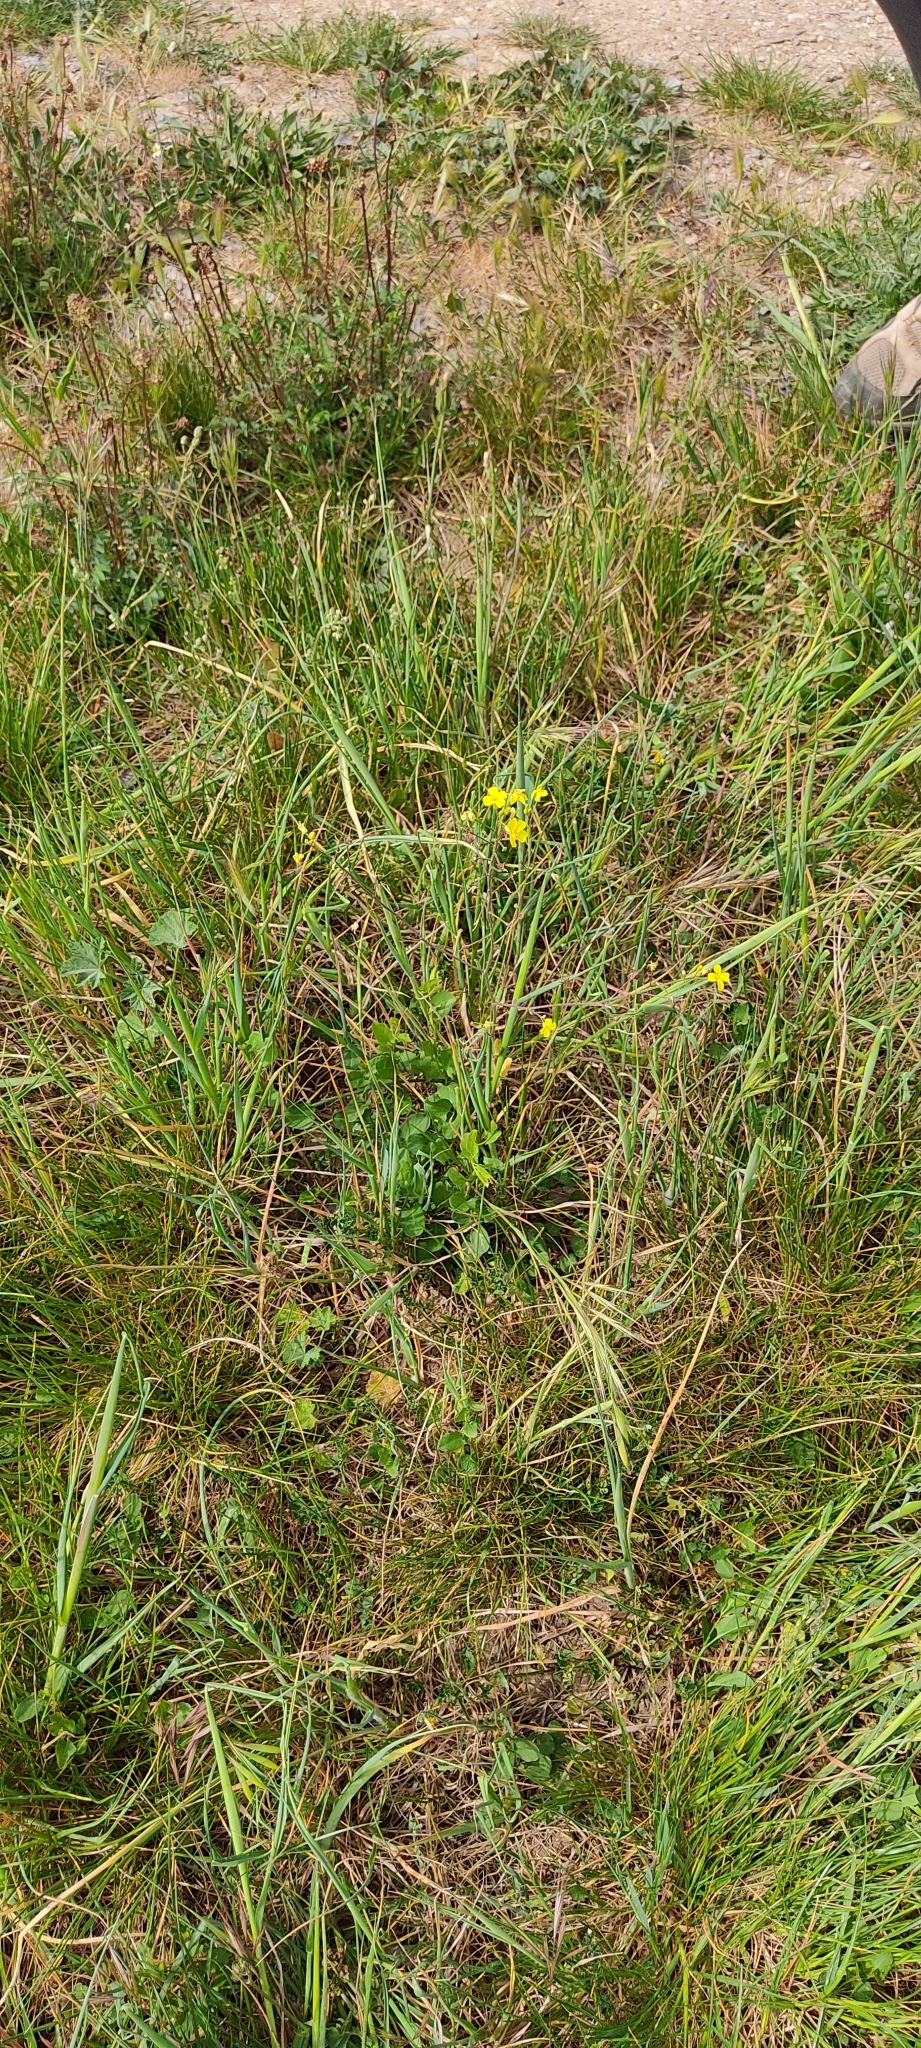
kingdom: Plantae
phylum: Tracheophyta
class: Magnoliopsida
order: Brassicales
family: Brassicaceae
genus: Bunias
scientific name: Bunias erucago
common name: Southern warty-cabbage
